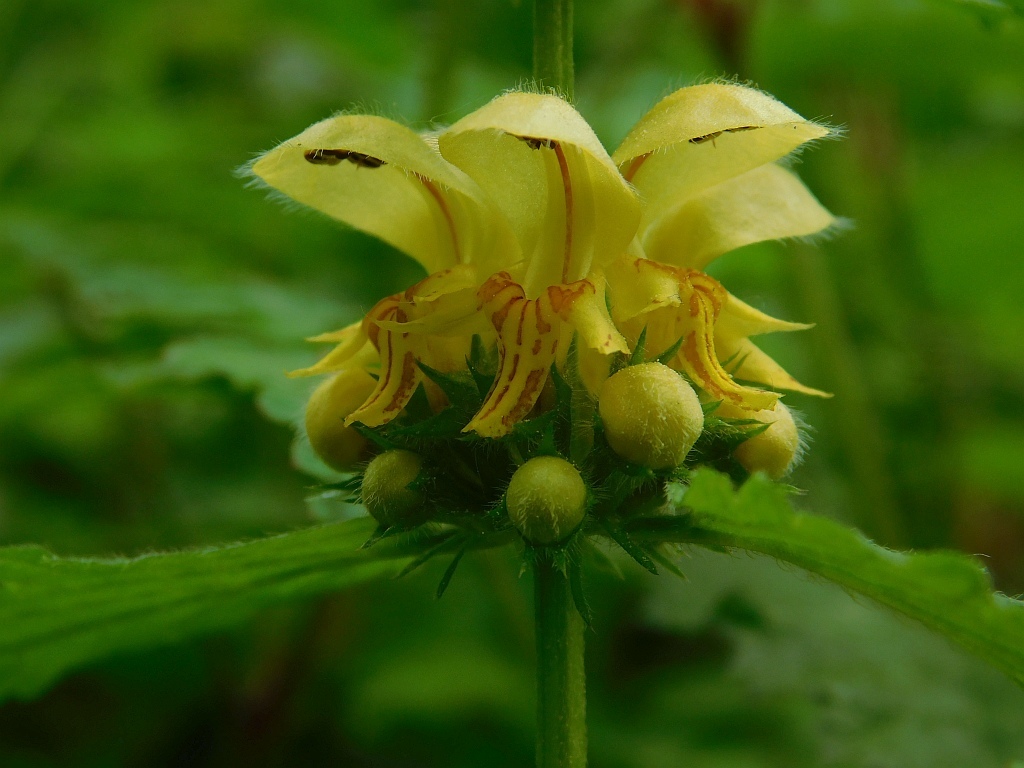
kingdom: Plantae
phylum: Tracheophyta
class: Magnoliopsida
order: Lamiales
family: Lamiaceae
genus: Lamium
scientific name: Lamium galeobdolon
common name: Yellow archangel
